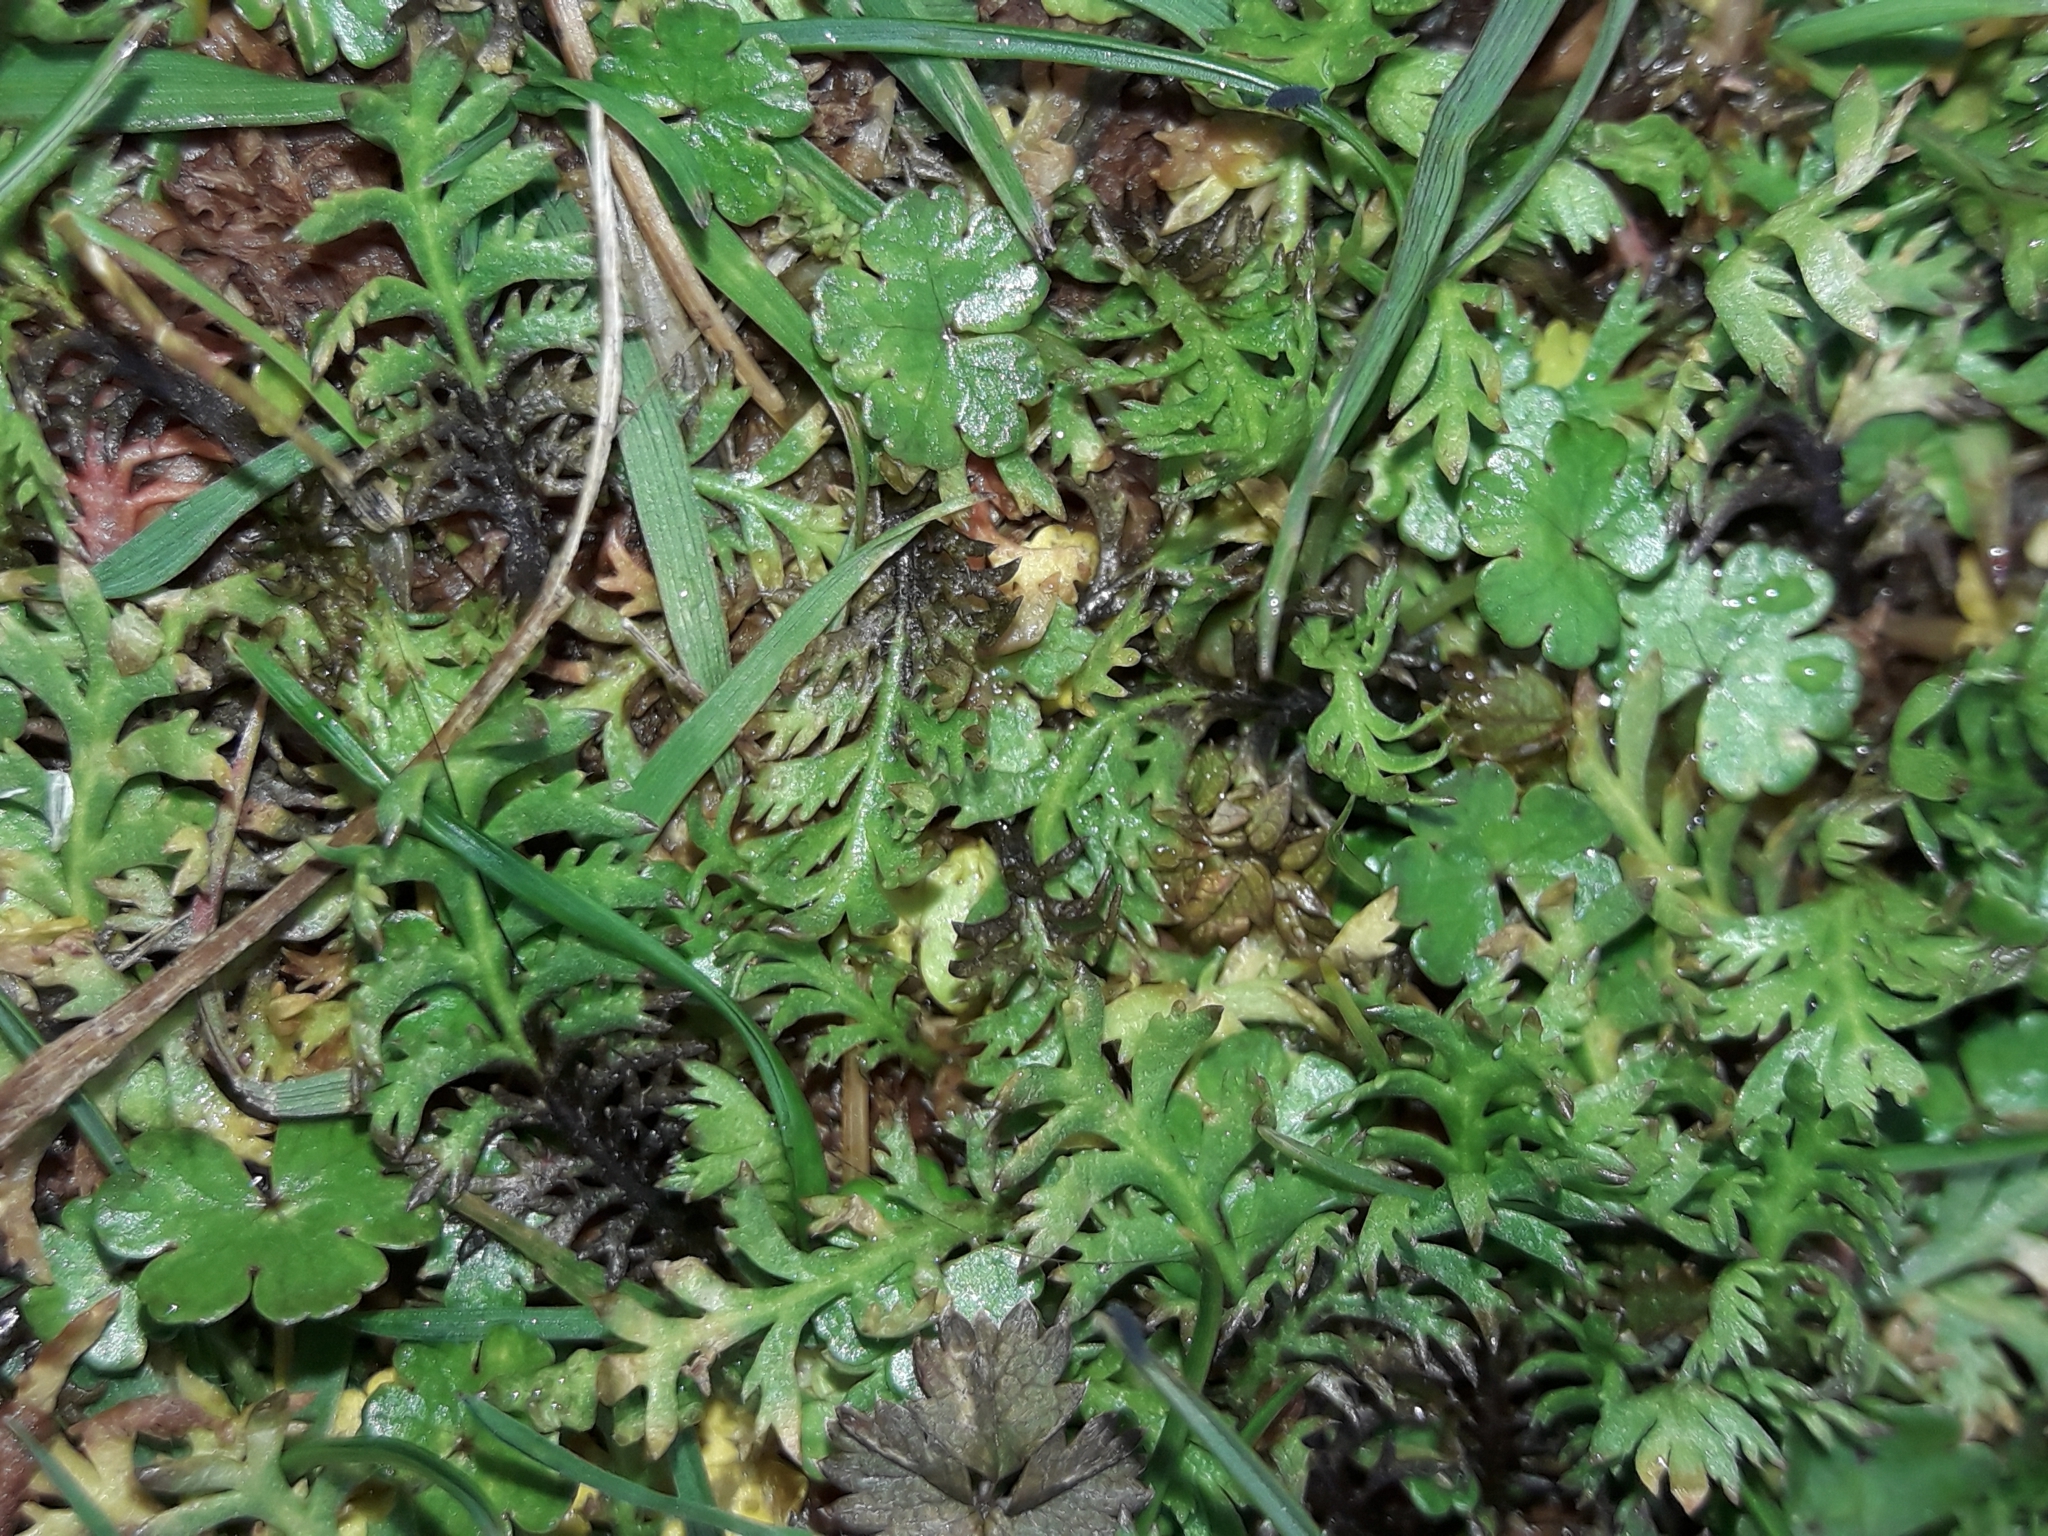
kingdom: Plantae
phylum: Tracheophyta
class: Magnoliopsida
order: Asterales
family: Asteraceae
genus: Leptinella
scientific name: Leptinella squalida
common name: New zealand brass-buttons
